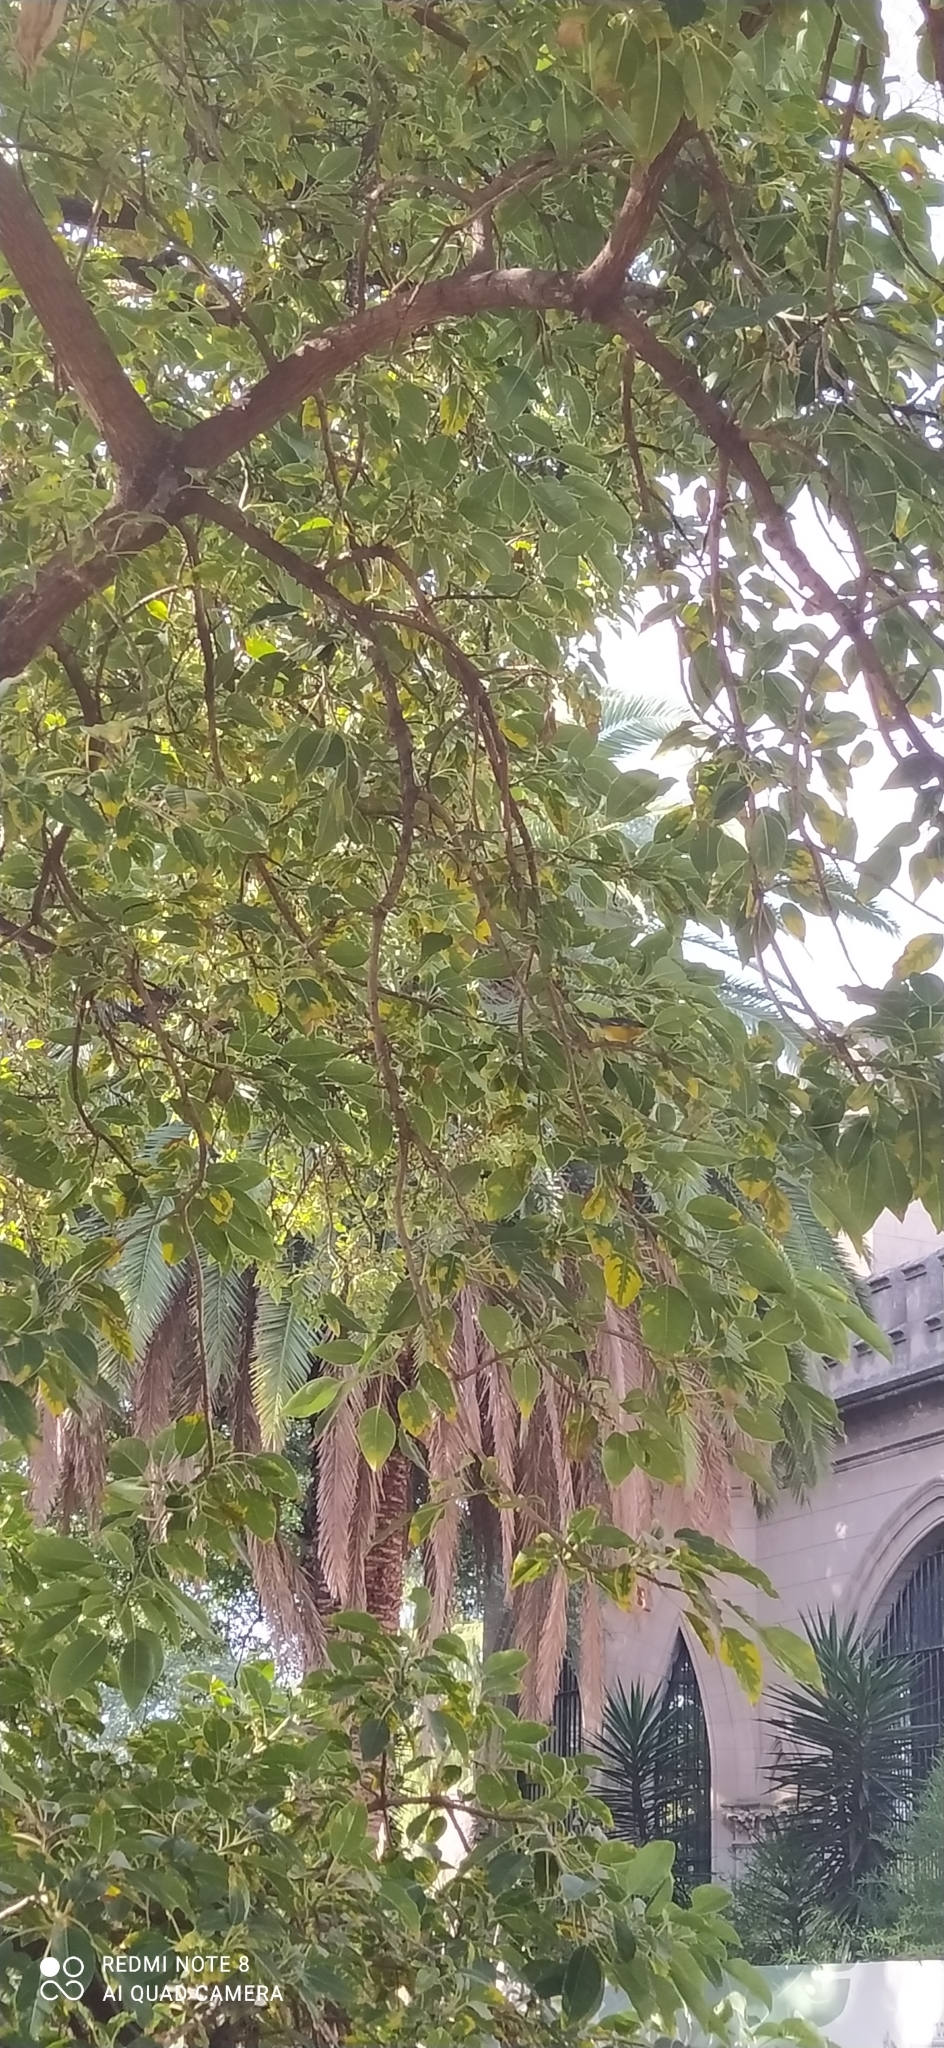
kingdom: Animalia
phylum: Chordata
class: Aves
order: Passeriformes
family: Parulidae
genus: Setophaga
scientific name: Setophaga pitiayumi
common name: Tropical parula
